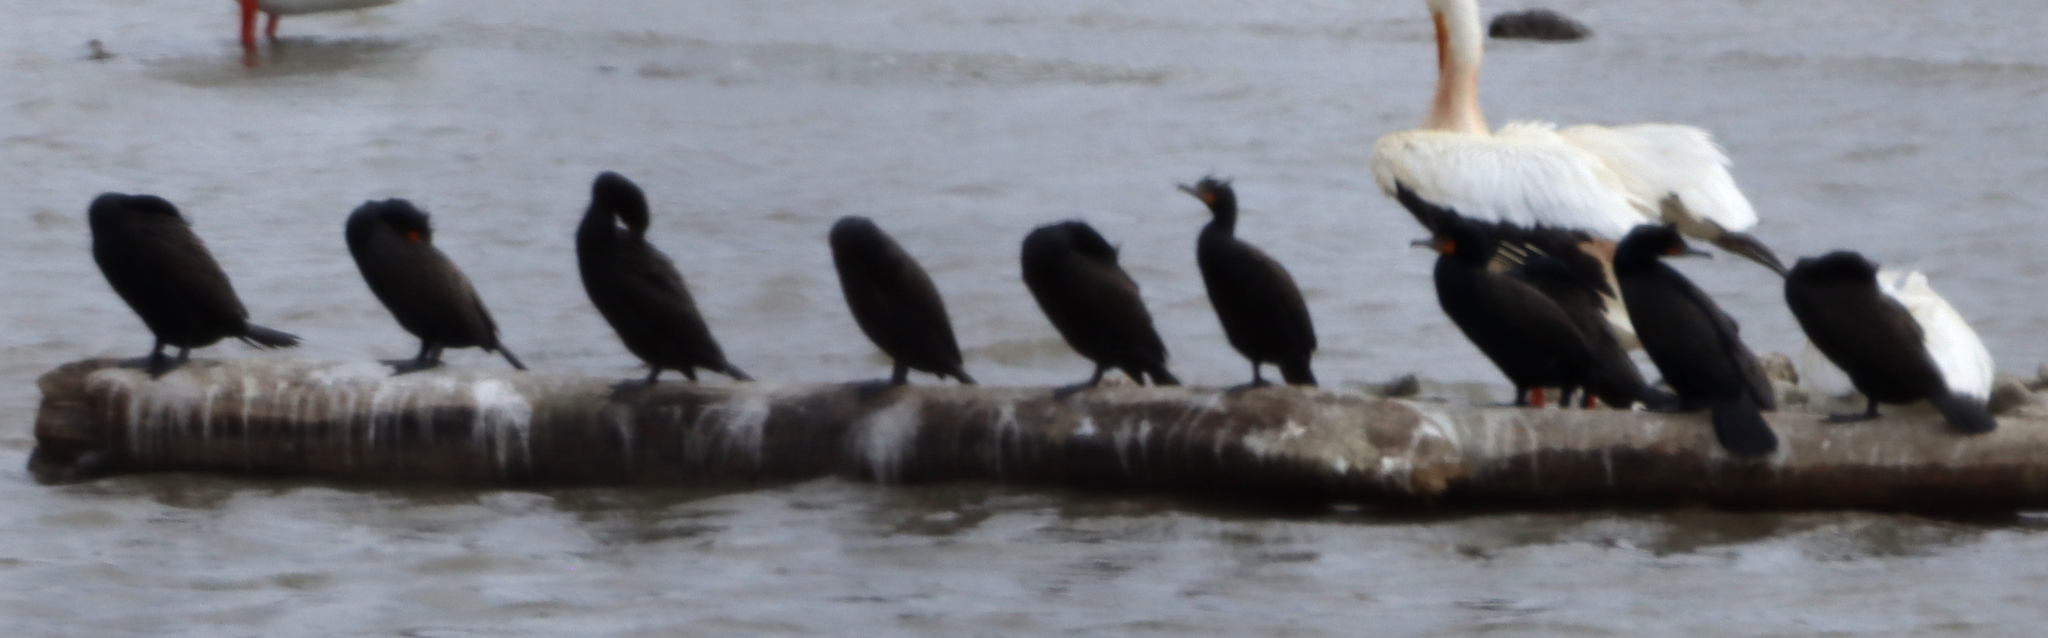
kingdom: Animalia
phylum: Chordata
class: Aves
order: Suliformes
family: Phalacrocoracidae
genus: Phalacrocorax
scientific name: Phalacrocorax auritus
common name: Double-crested cormorant
